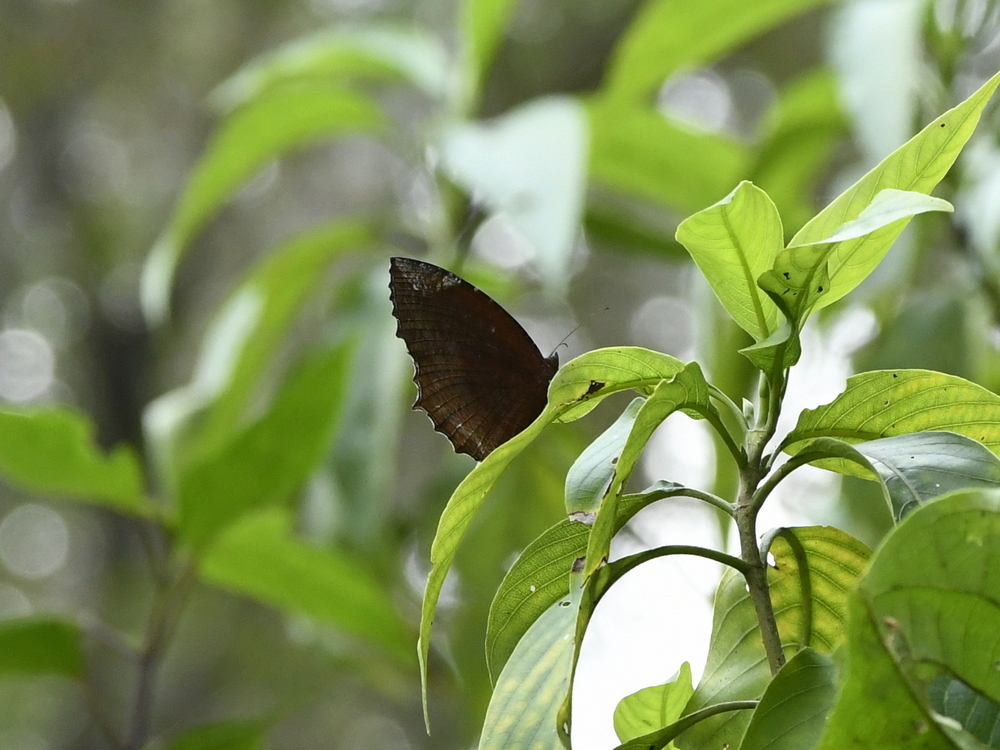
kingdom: Animalia
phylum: Arthropoda
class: Insecta
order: Lepidoptera
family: Nymphalidae
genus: Elymnias
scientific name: Elymnias hypermnestra
